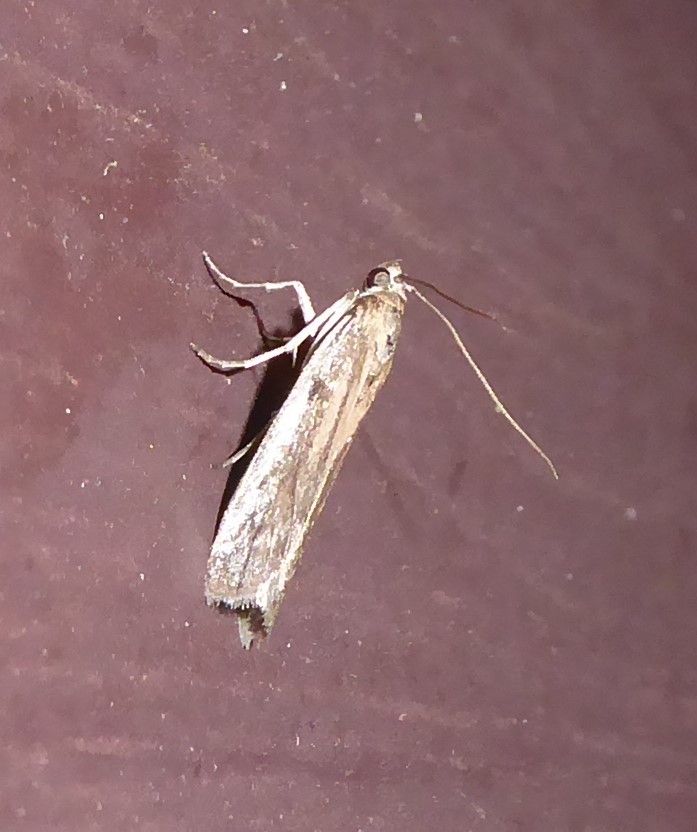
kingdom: Animalia
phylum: Arthropoda
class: Insecta
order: Lepidoptera
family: Pyralidae
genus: Patagoniodes
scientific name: Patagoniodes farinaria
